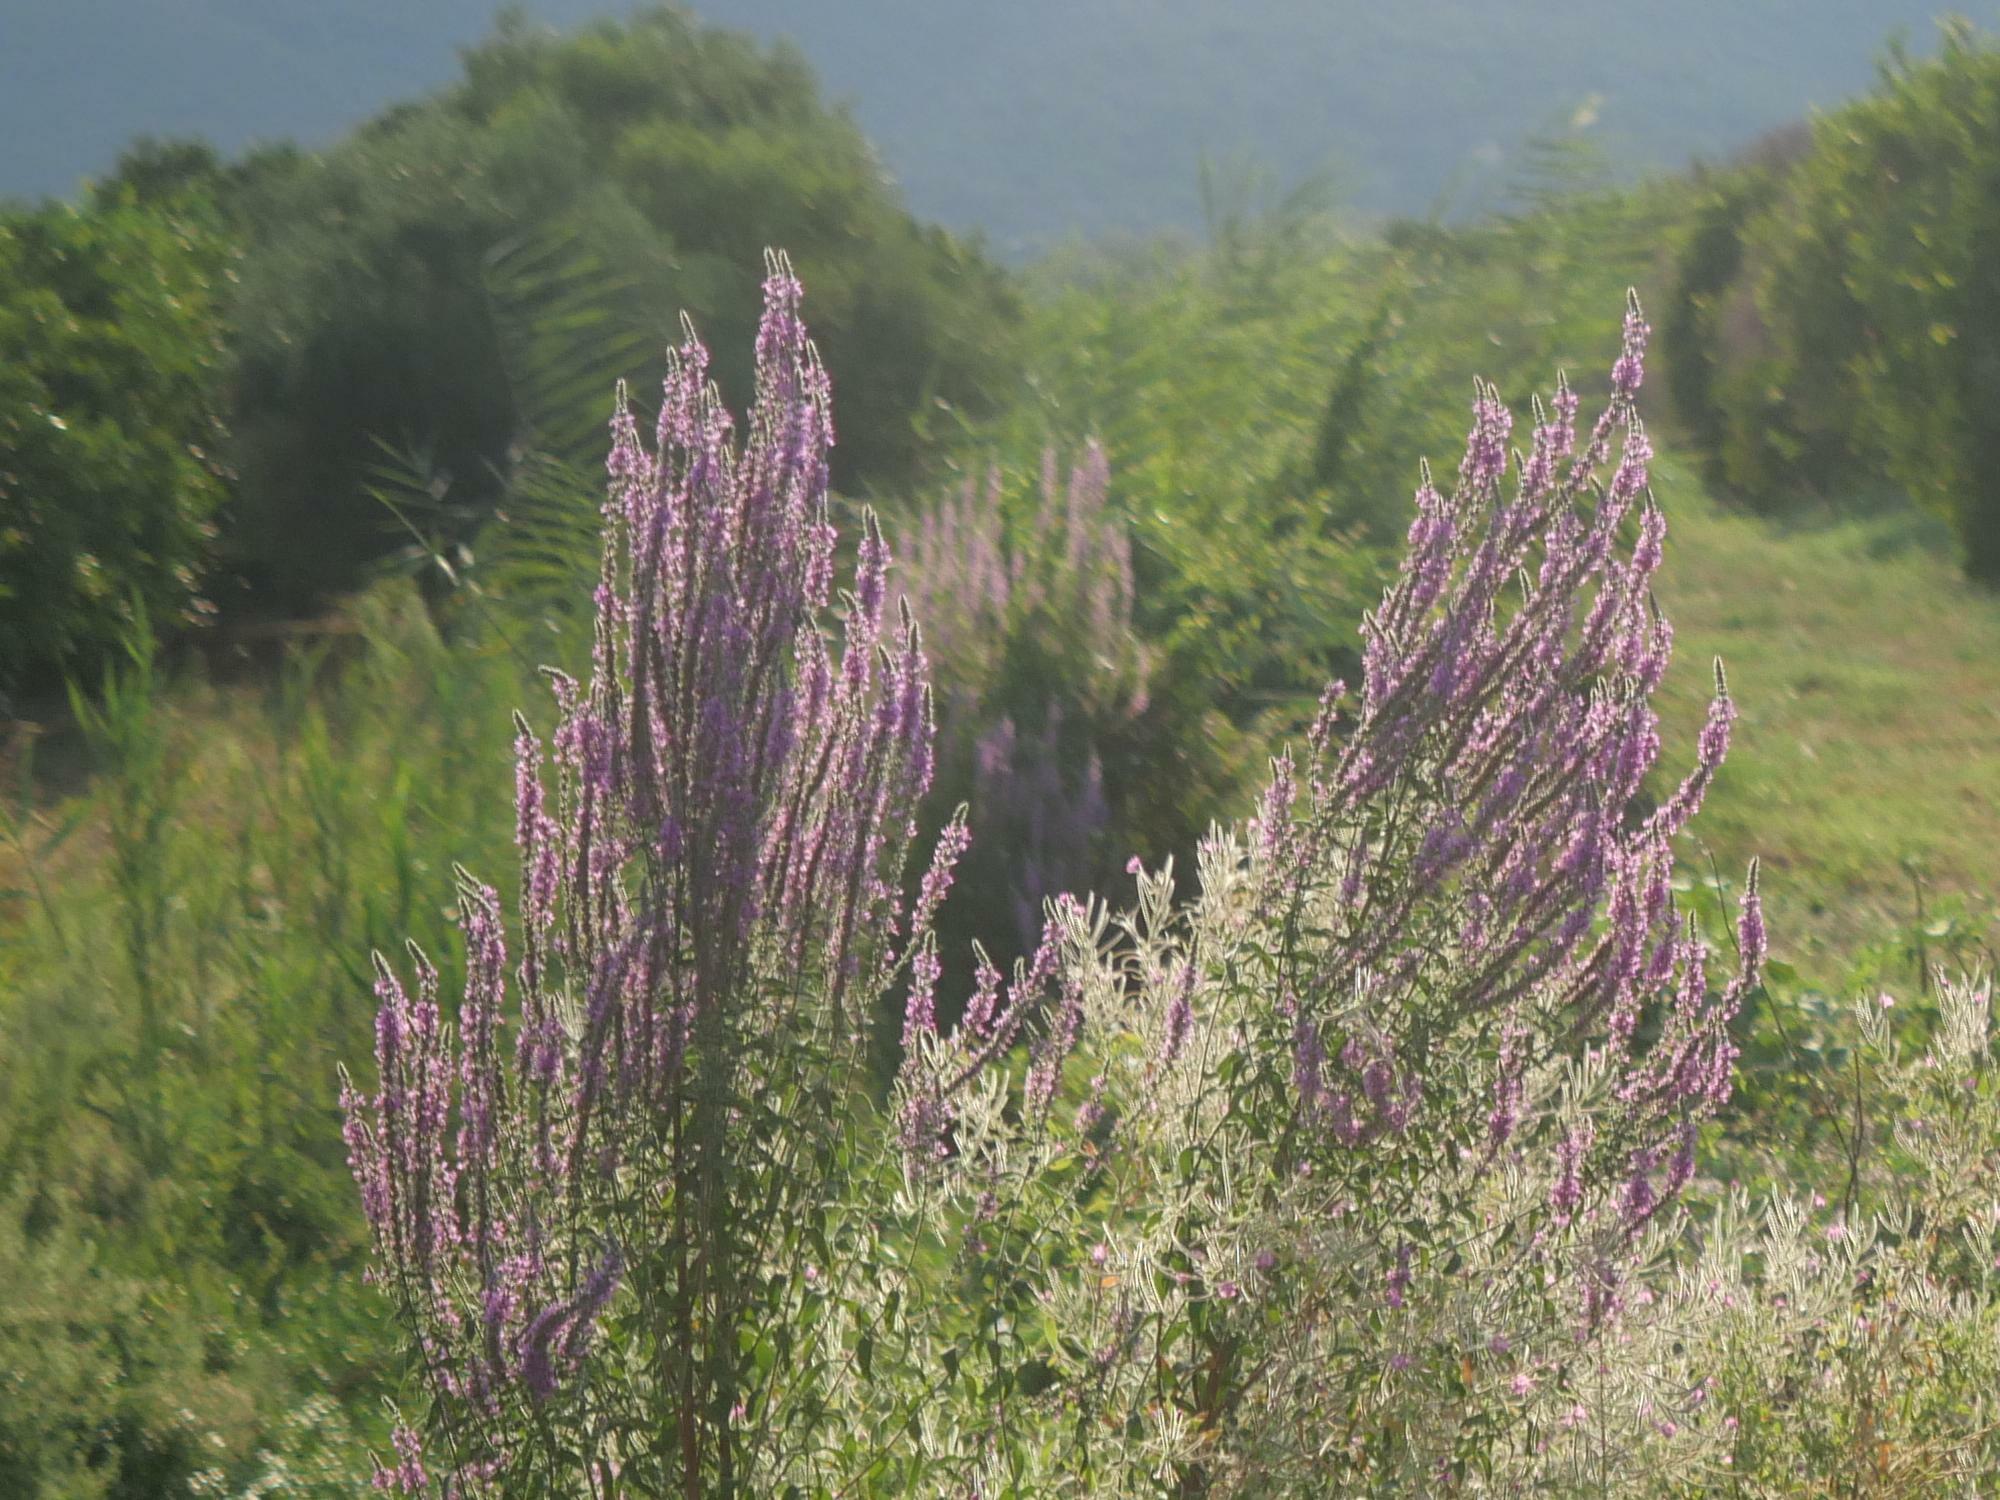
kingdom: Plantae
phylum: Tracheophyta
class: Magnoliopsida
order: Myrtales
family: Lythraceae
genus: Lythrum
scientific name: Lythrum salicaria
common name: Purple loosestrife
